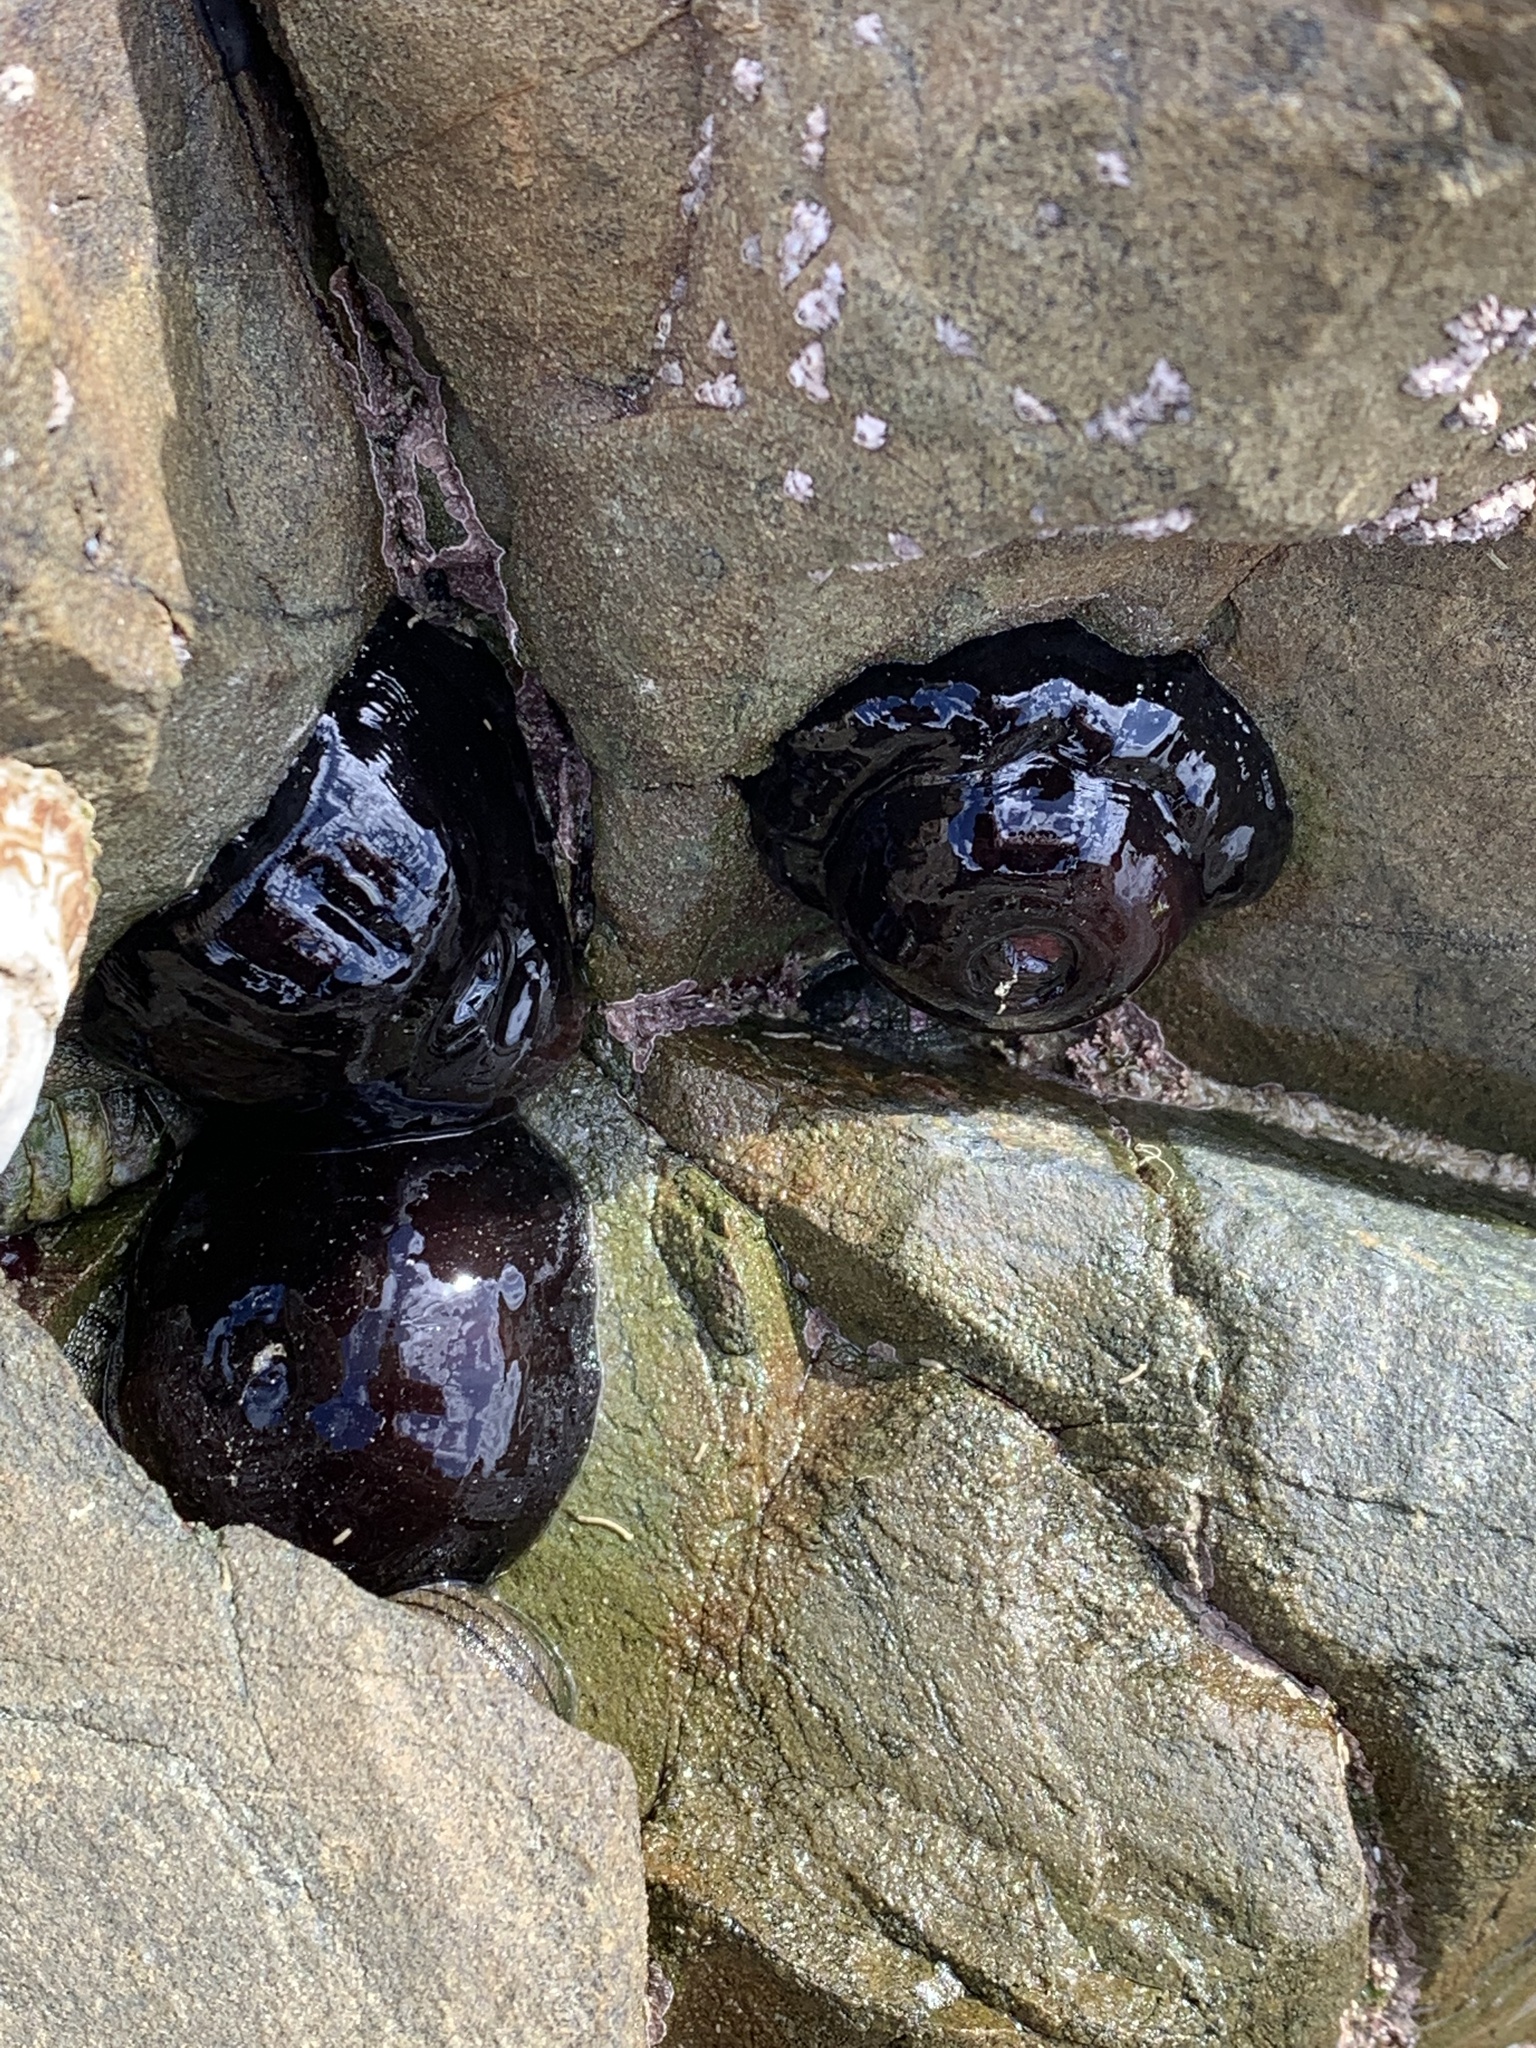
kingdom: Animalia
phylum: Cnidaria
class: Anthozoa
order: Actiniaria
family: Actiniidae
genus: Actinia
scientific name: Actinia tenebrosa
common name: Waratah anemone
